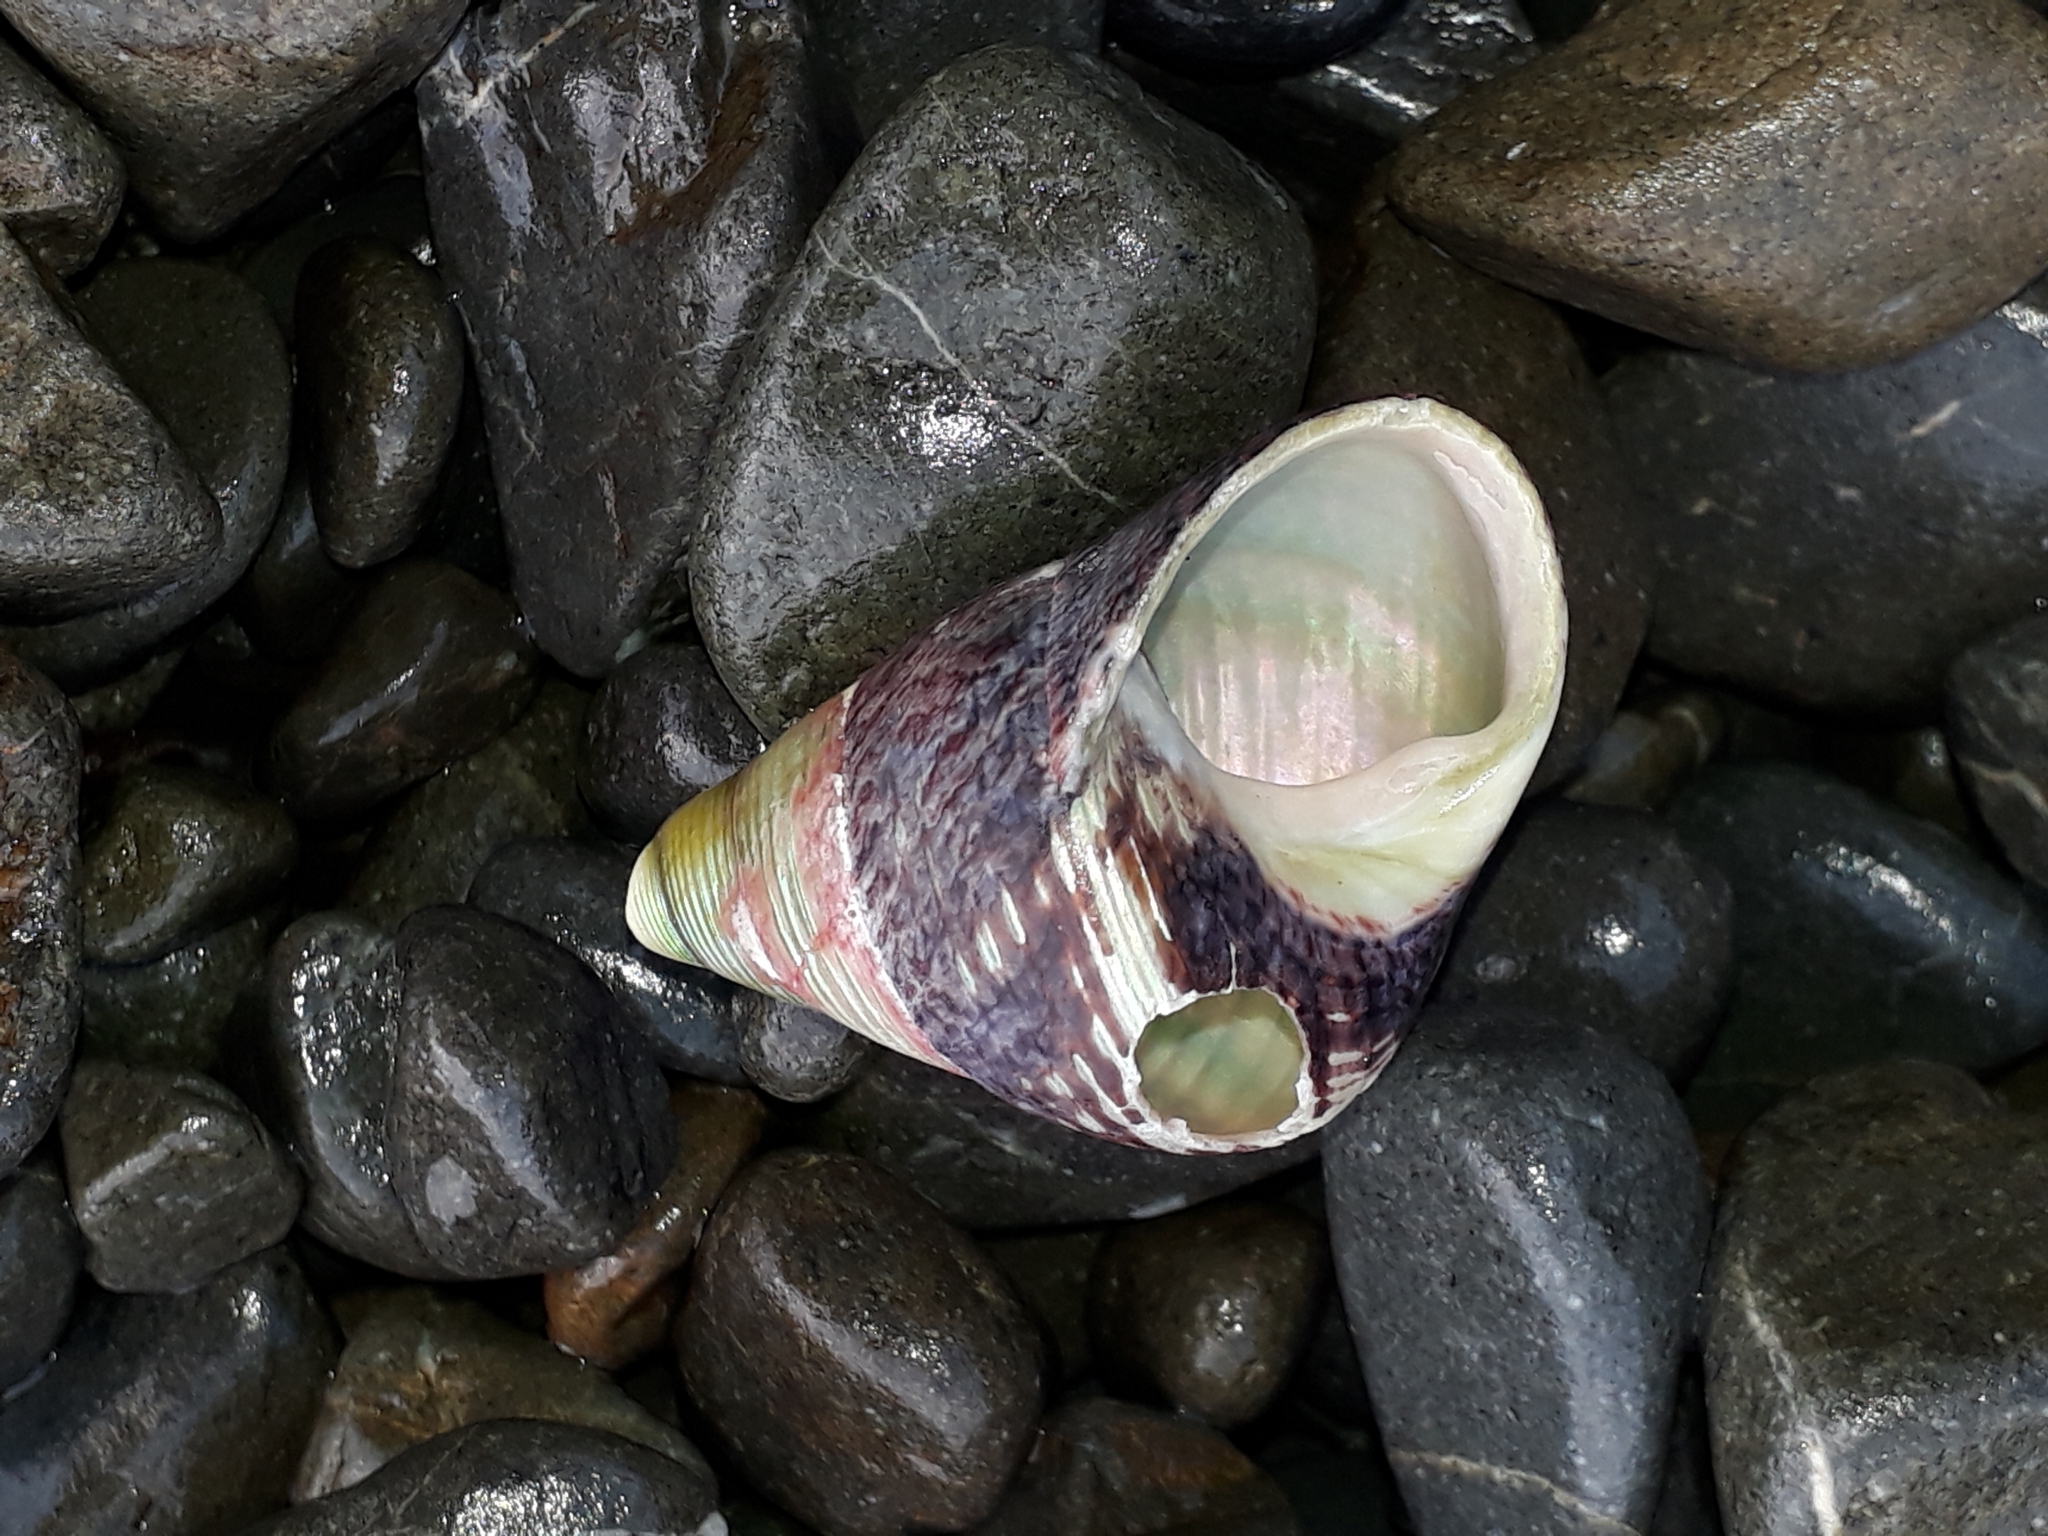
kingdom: Animalia
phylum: Mollusca
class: Gastropoda
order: Trochida
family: Trochidae
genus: Cantharidus
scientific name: Cantharidus opalus
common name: Opal jewel topsnail
